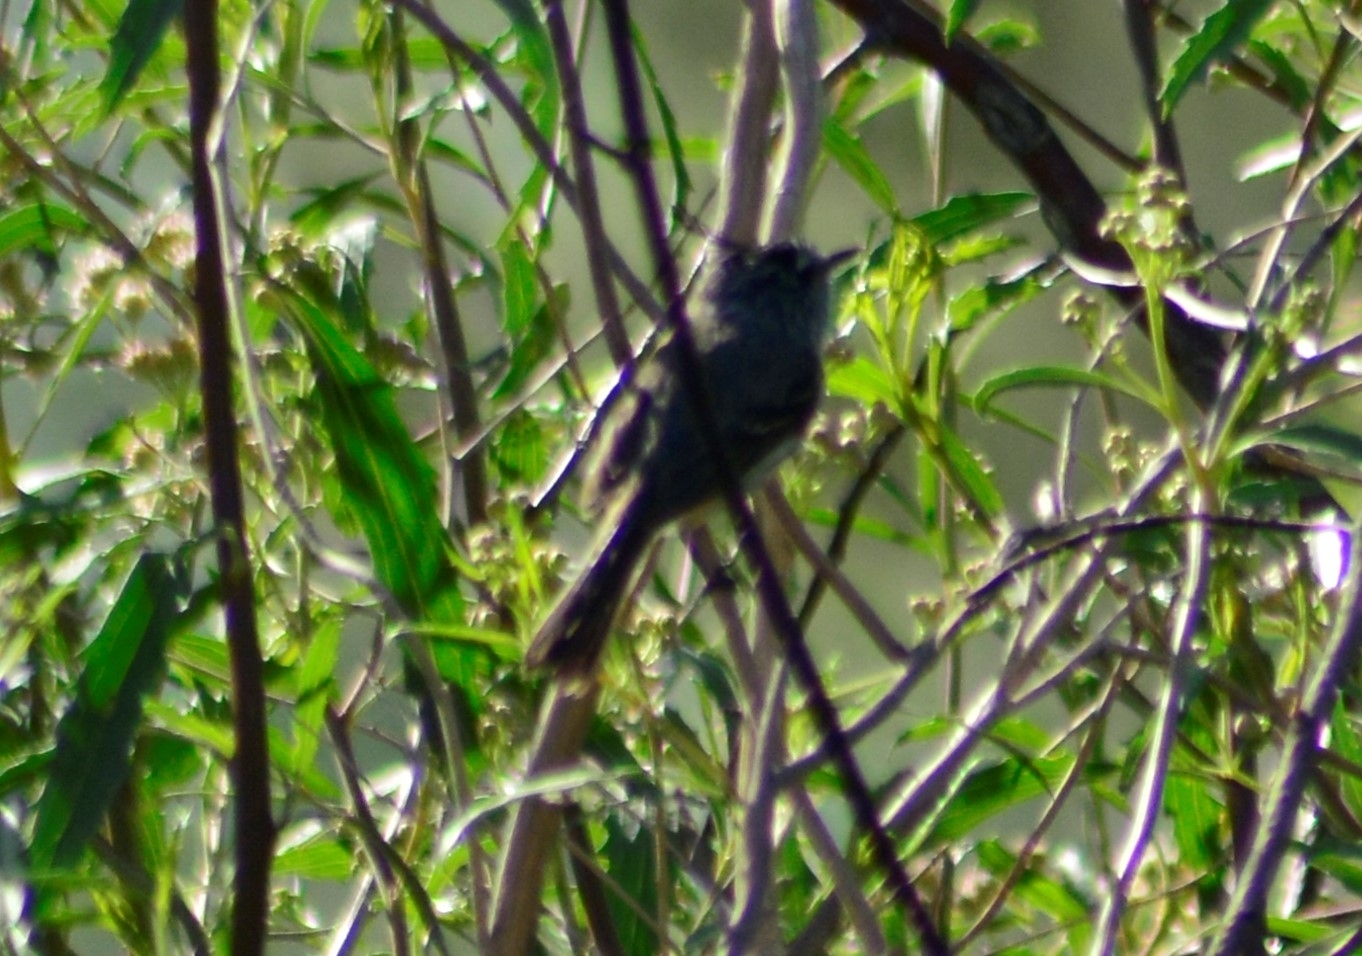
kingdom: Animalia
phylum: Chordata
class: Aves
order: Passeriformes
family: Tyrannidae
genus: Anairetes
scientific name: Anairetes parulus
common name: Tufted tit-tyrant
